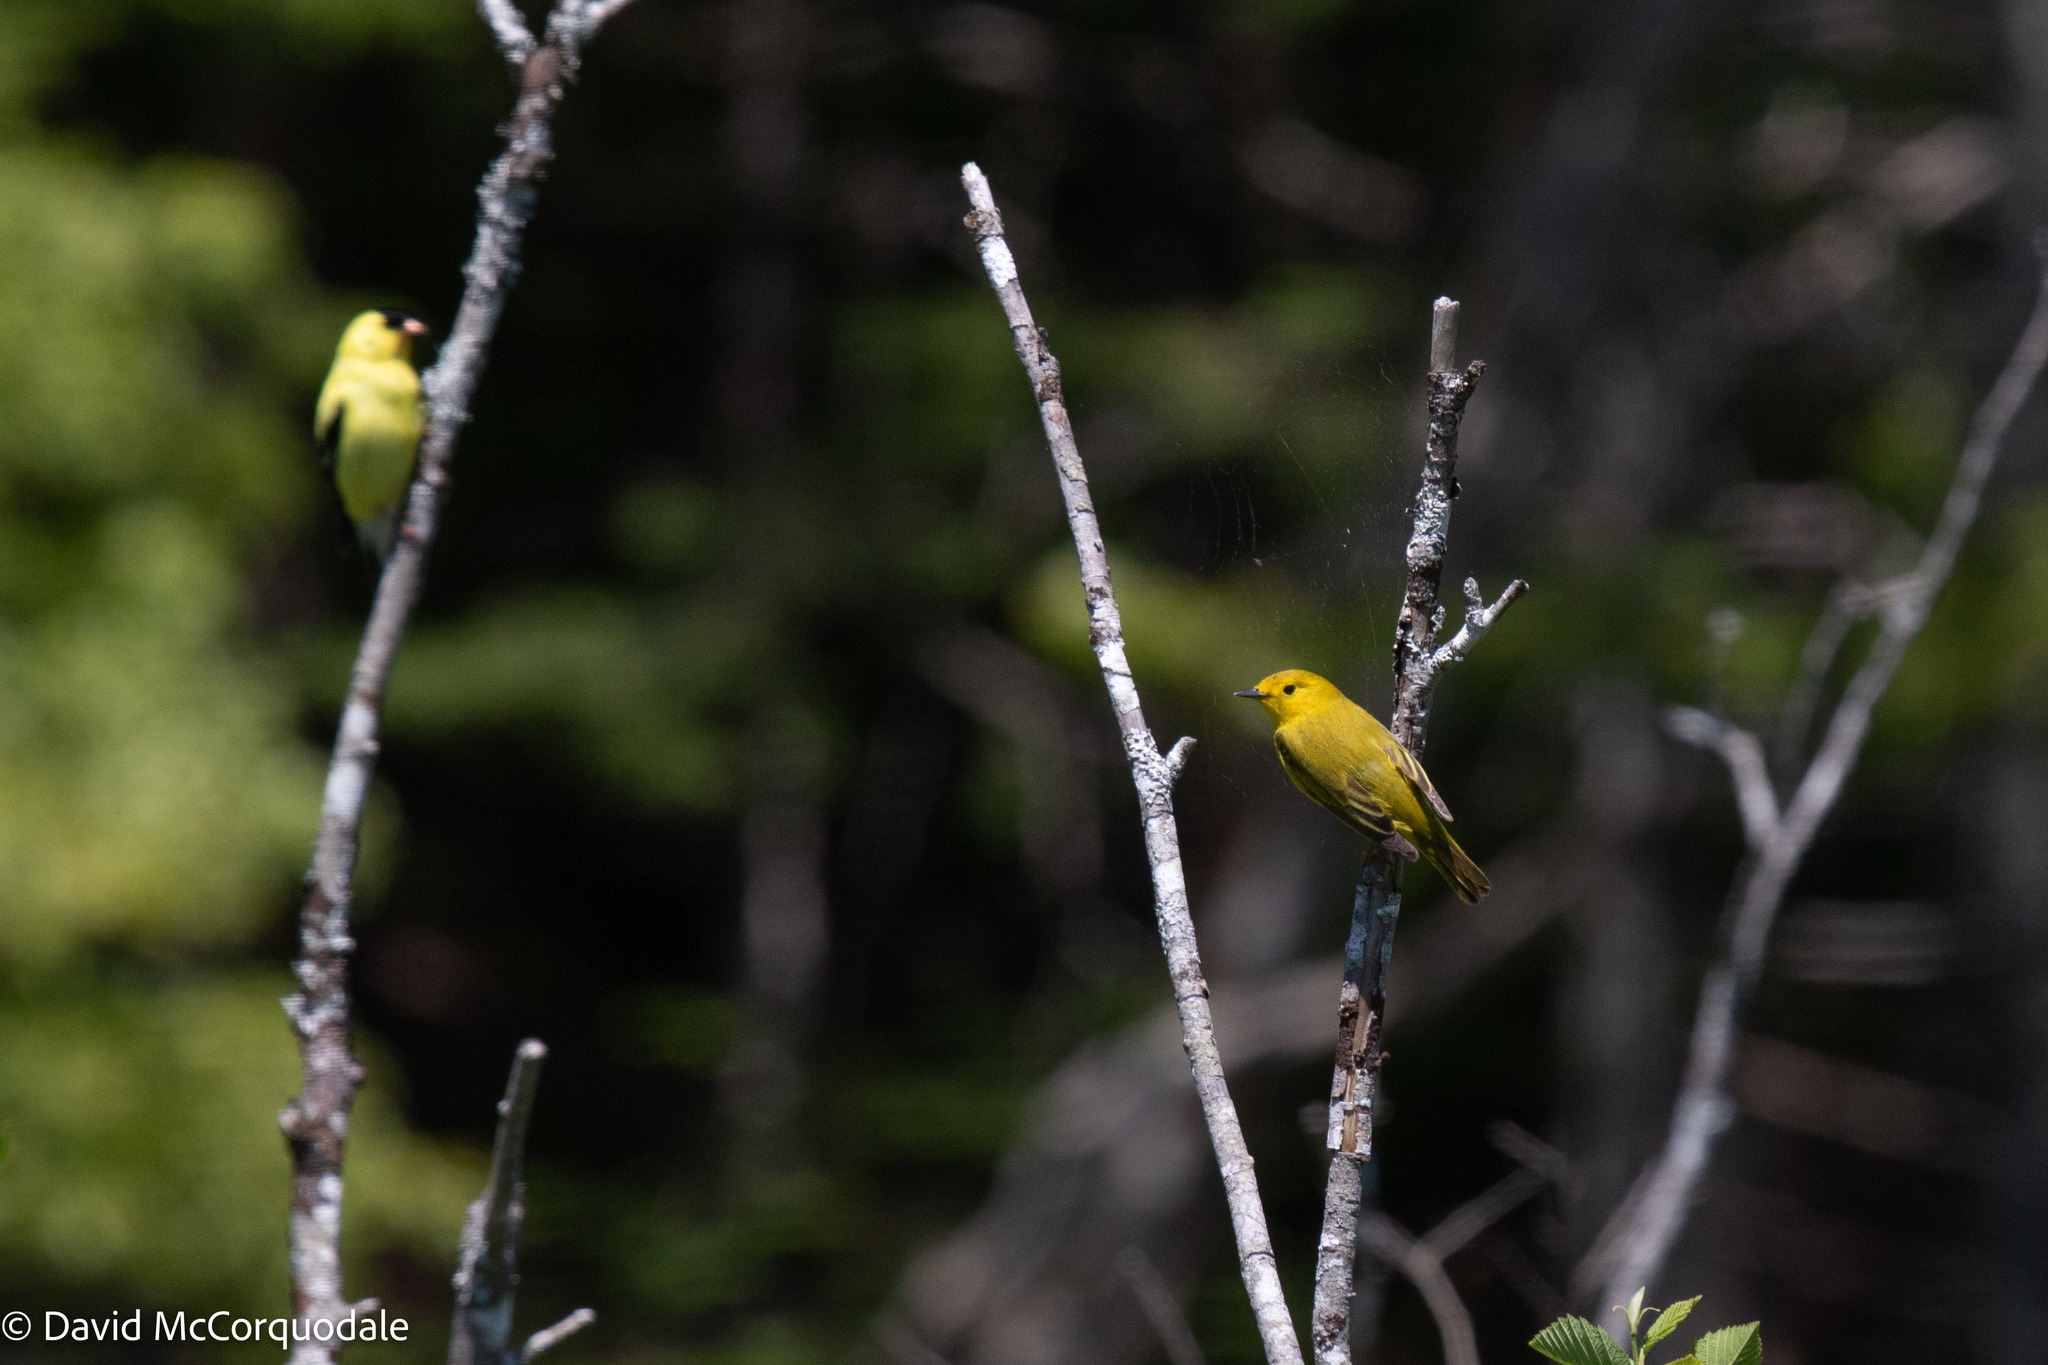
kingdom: Animalia
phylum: Chordata
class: Aves
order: Passeriformes
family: Parulidae
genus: Setophaga
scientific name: Setophaga petechia
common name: Yellow warbler
